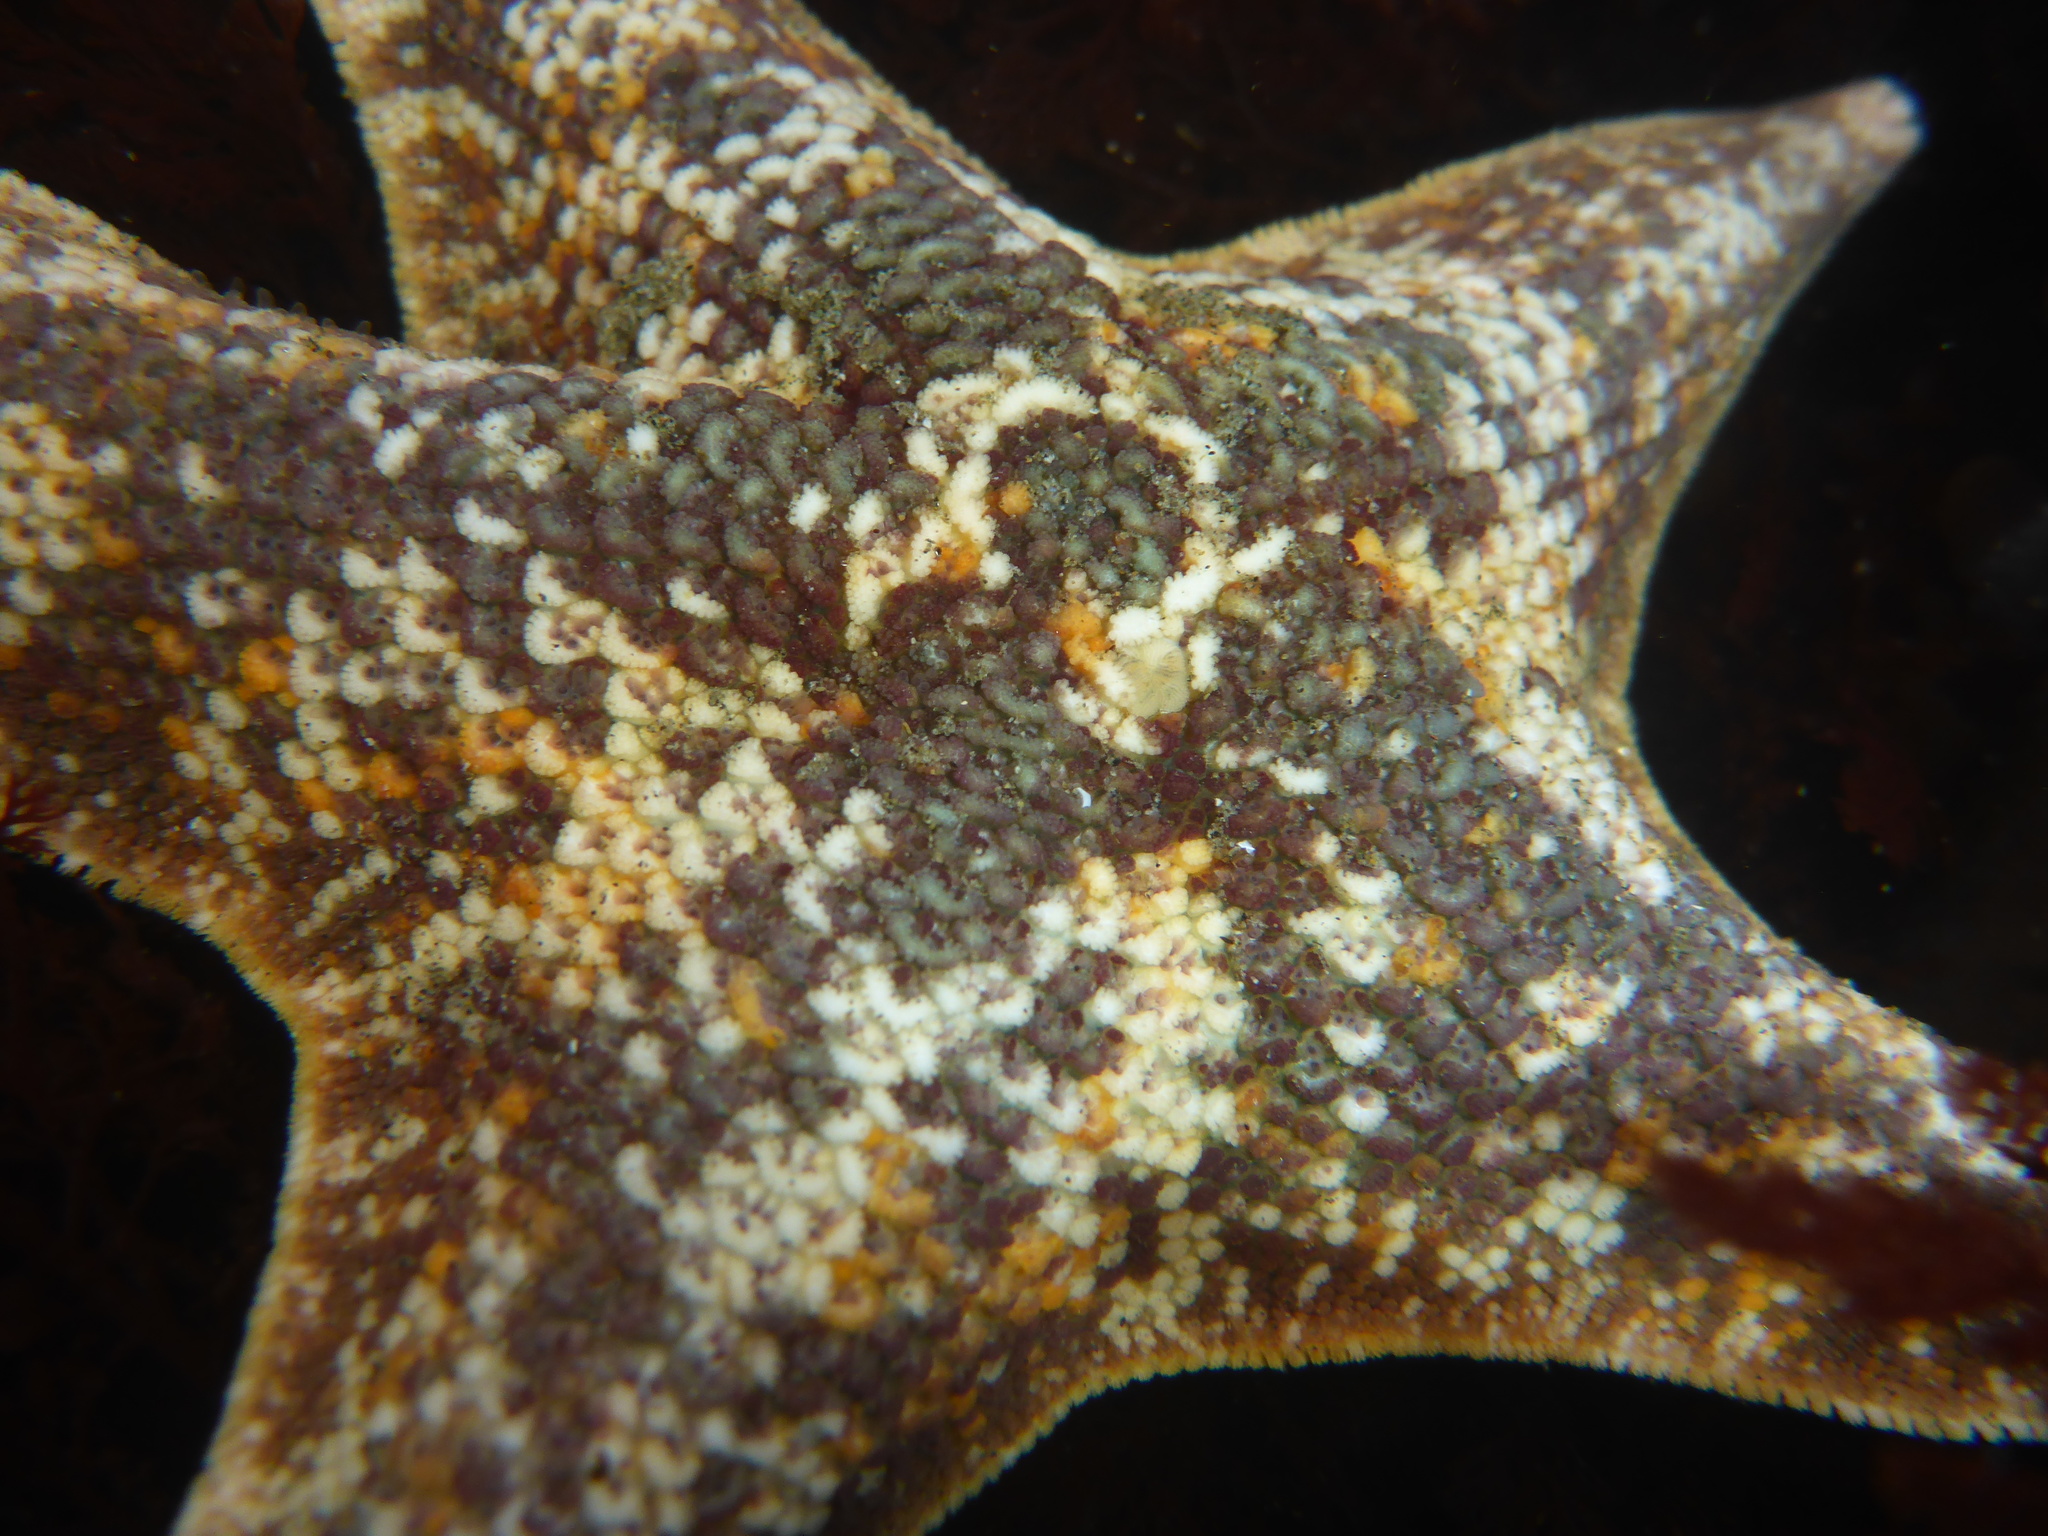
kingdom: Animalia
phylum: Echinodermata
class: Asteroidea
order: Valvatida
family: Asterinidae
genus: Patiria
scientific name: Patiria miniata
